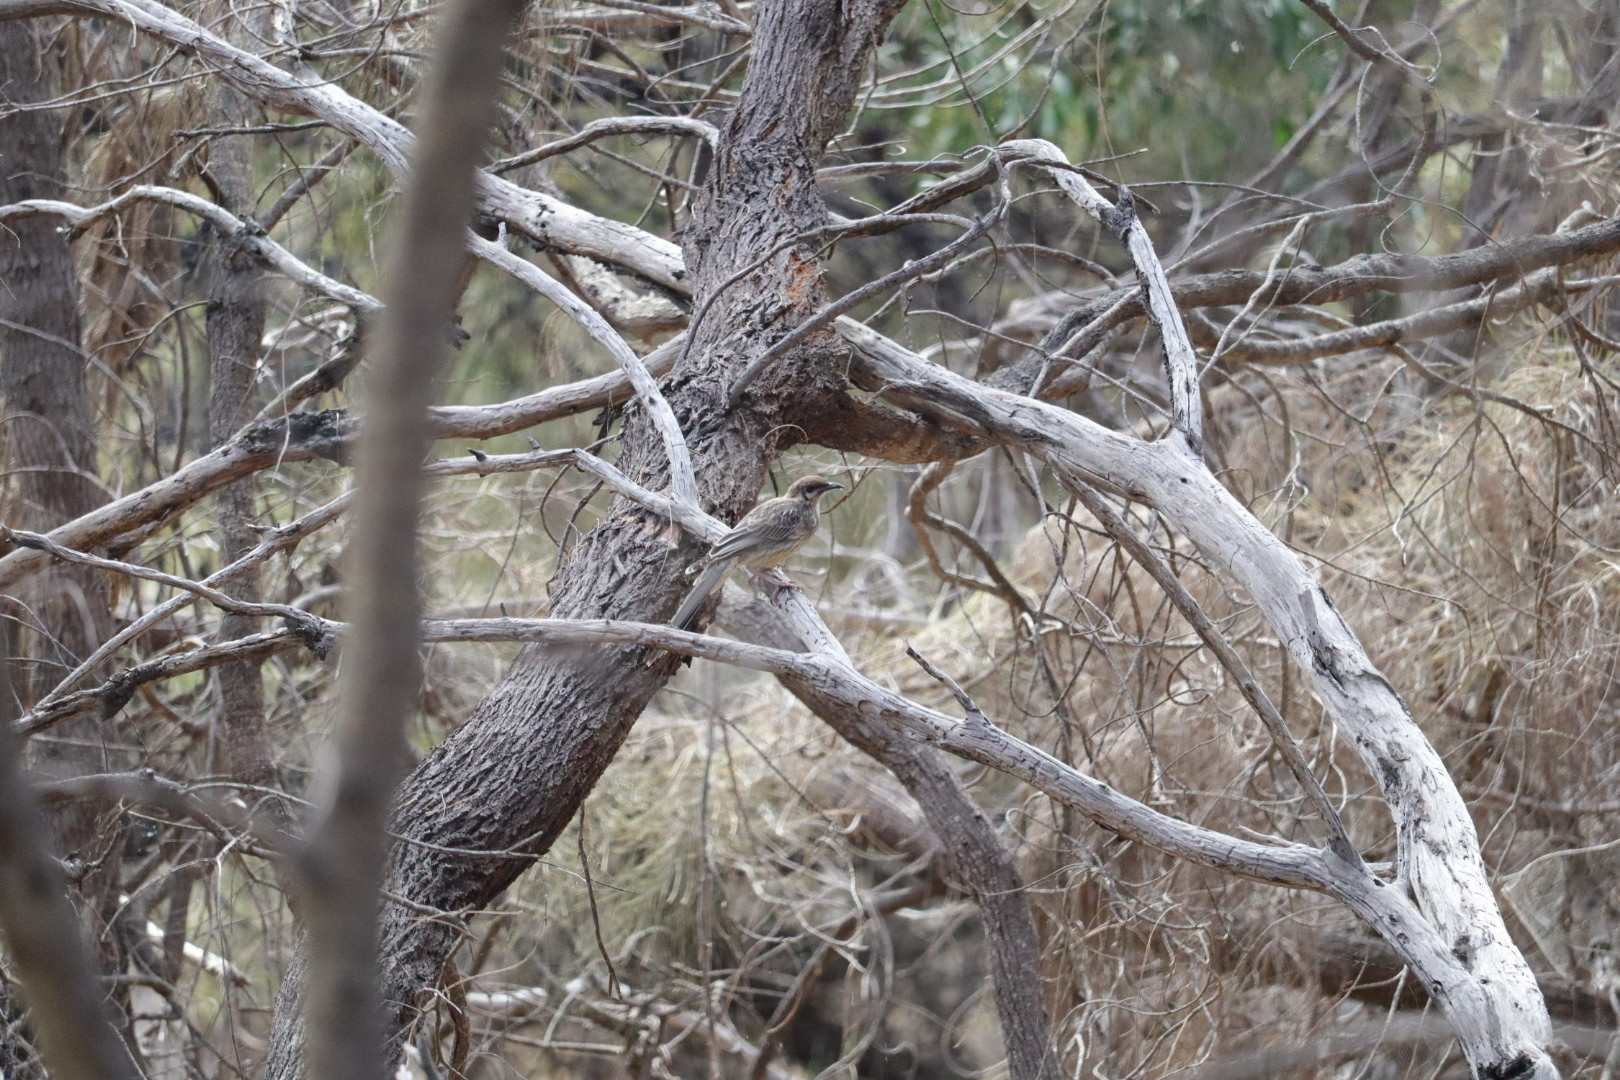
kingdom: Animalia
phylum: Chordata
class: Aves
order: Passeriformes
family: Meliphagidae
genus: Anthochaera
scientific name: Anthochaera carunculata
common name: Red wattlebird
